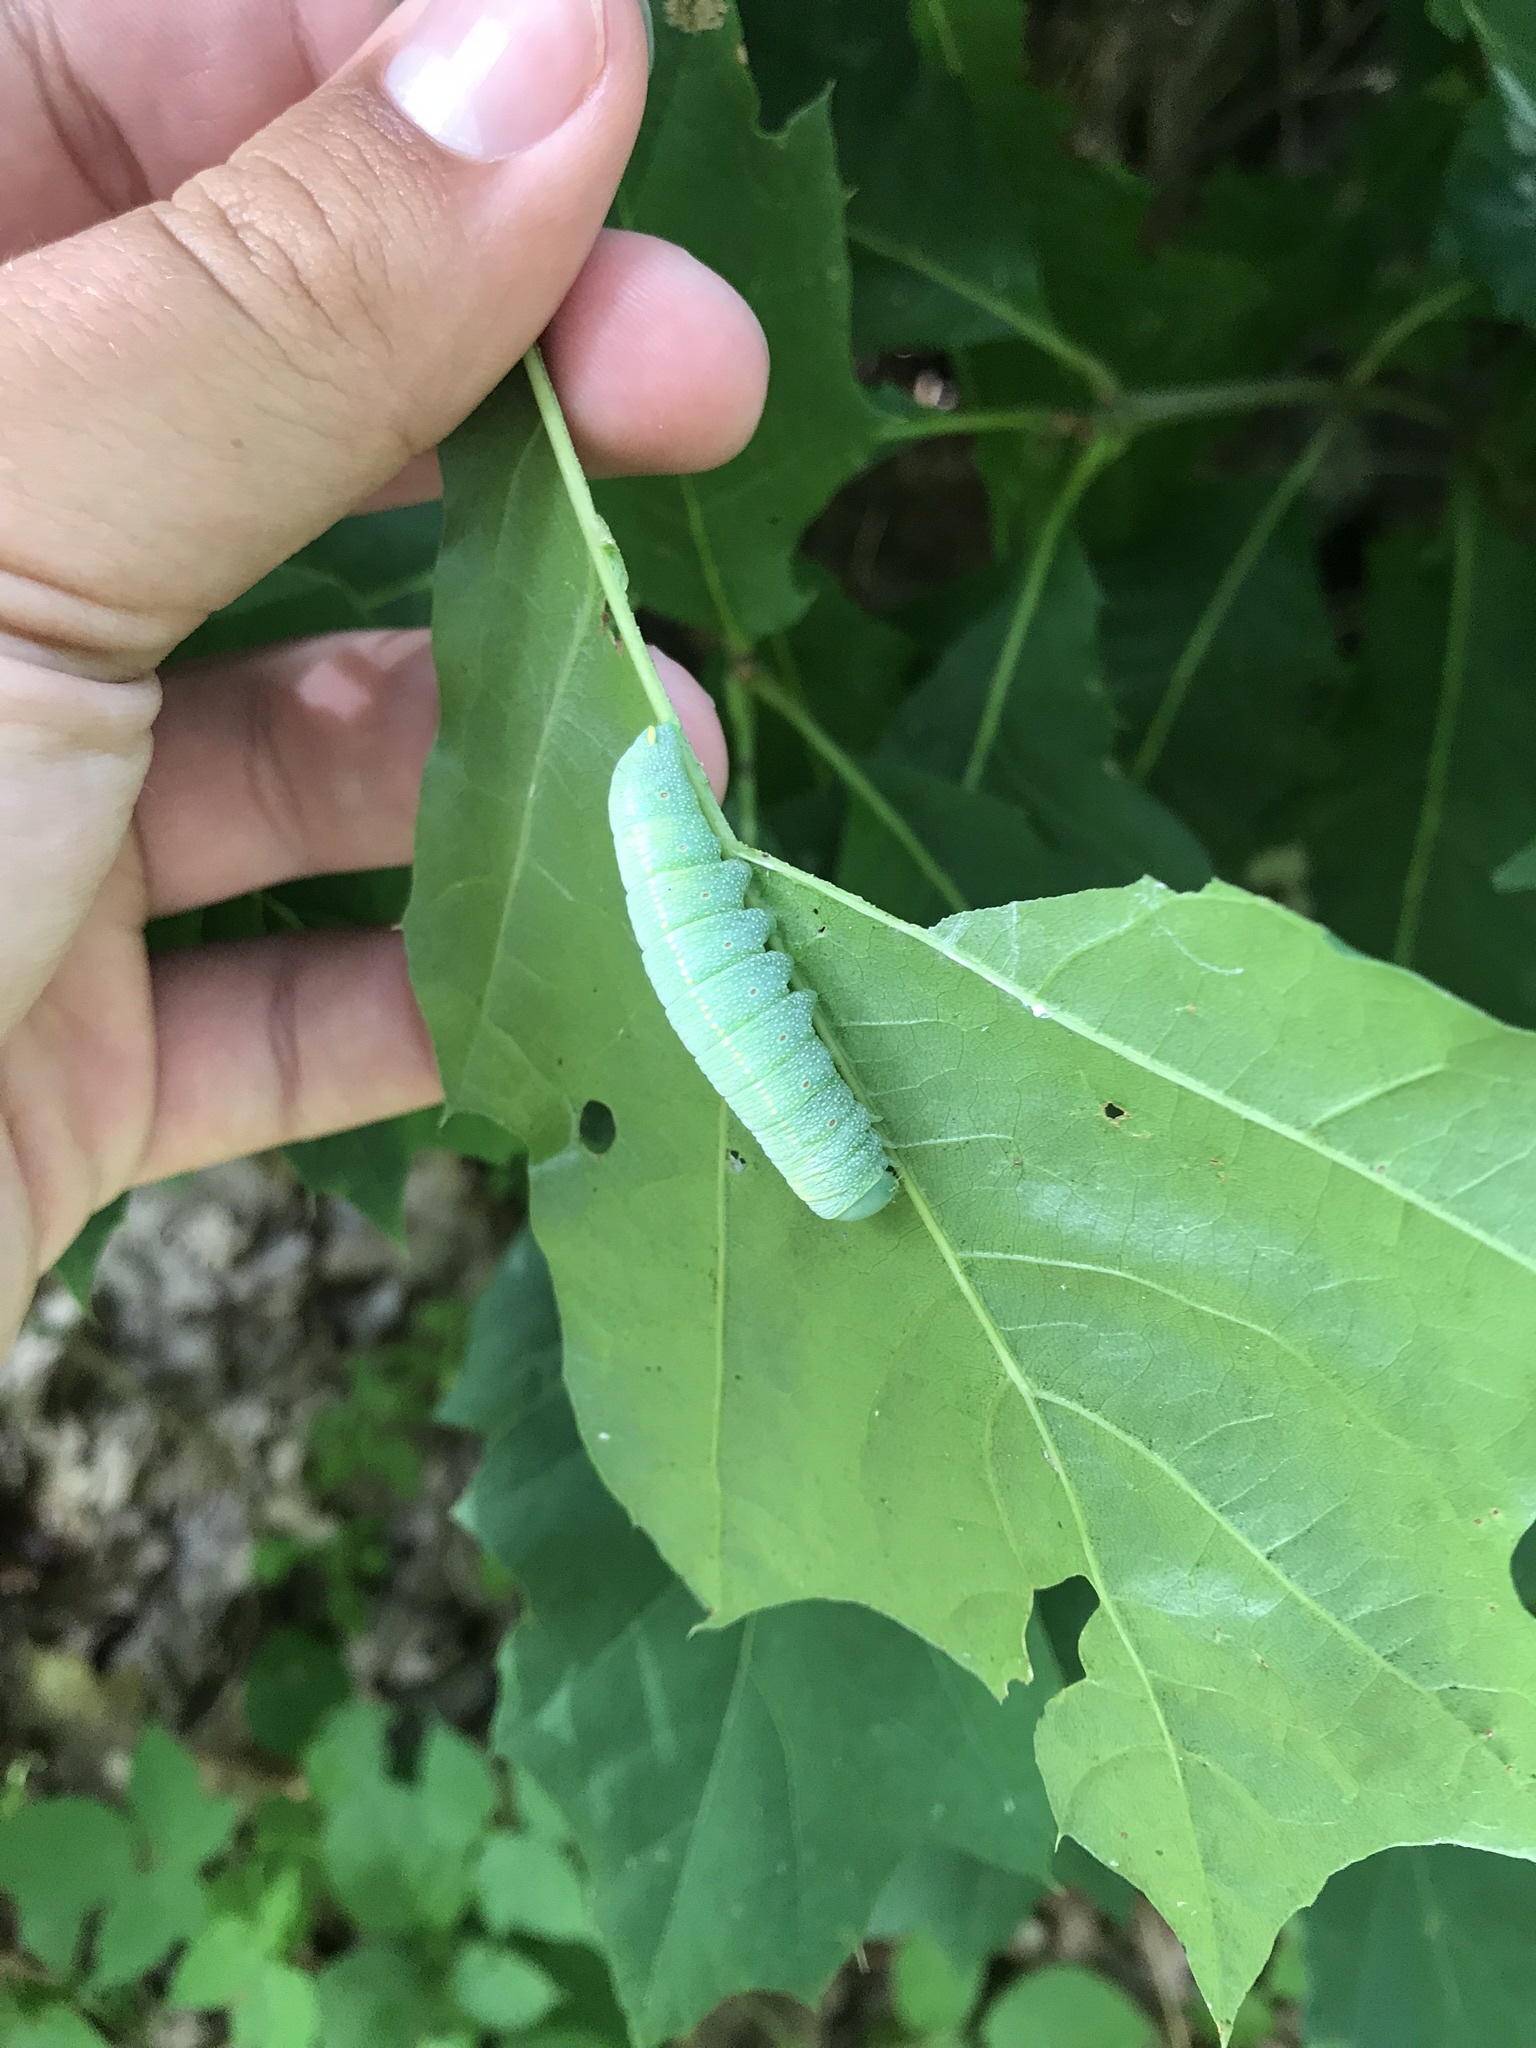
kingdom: Animalia
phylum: Arthropoda
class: Insecta
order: Lepidoptera
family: Notodontidae
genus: Nadata
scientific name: Nadata gibbosa
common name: White-dotted prominent
